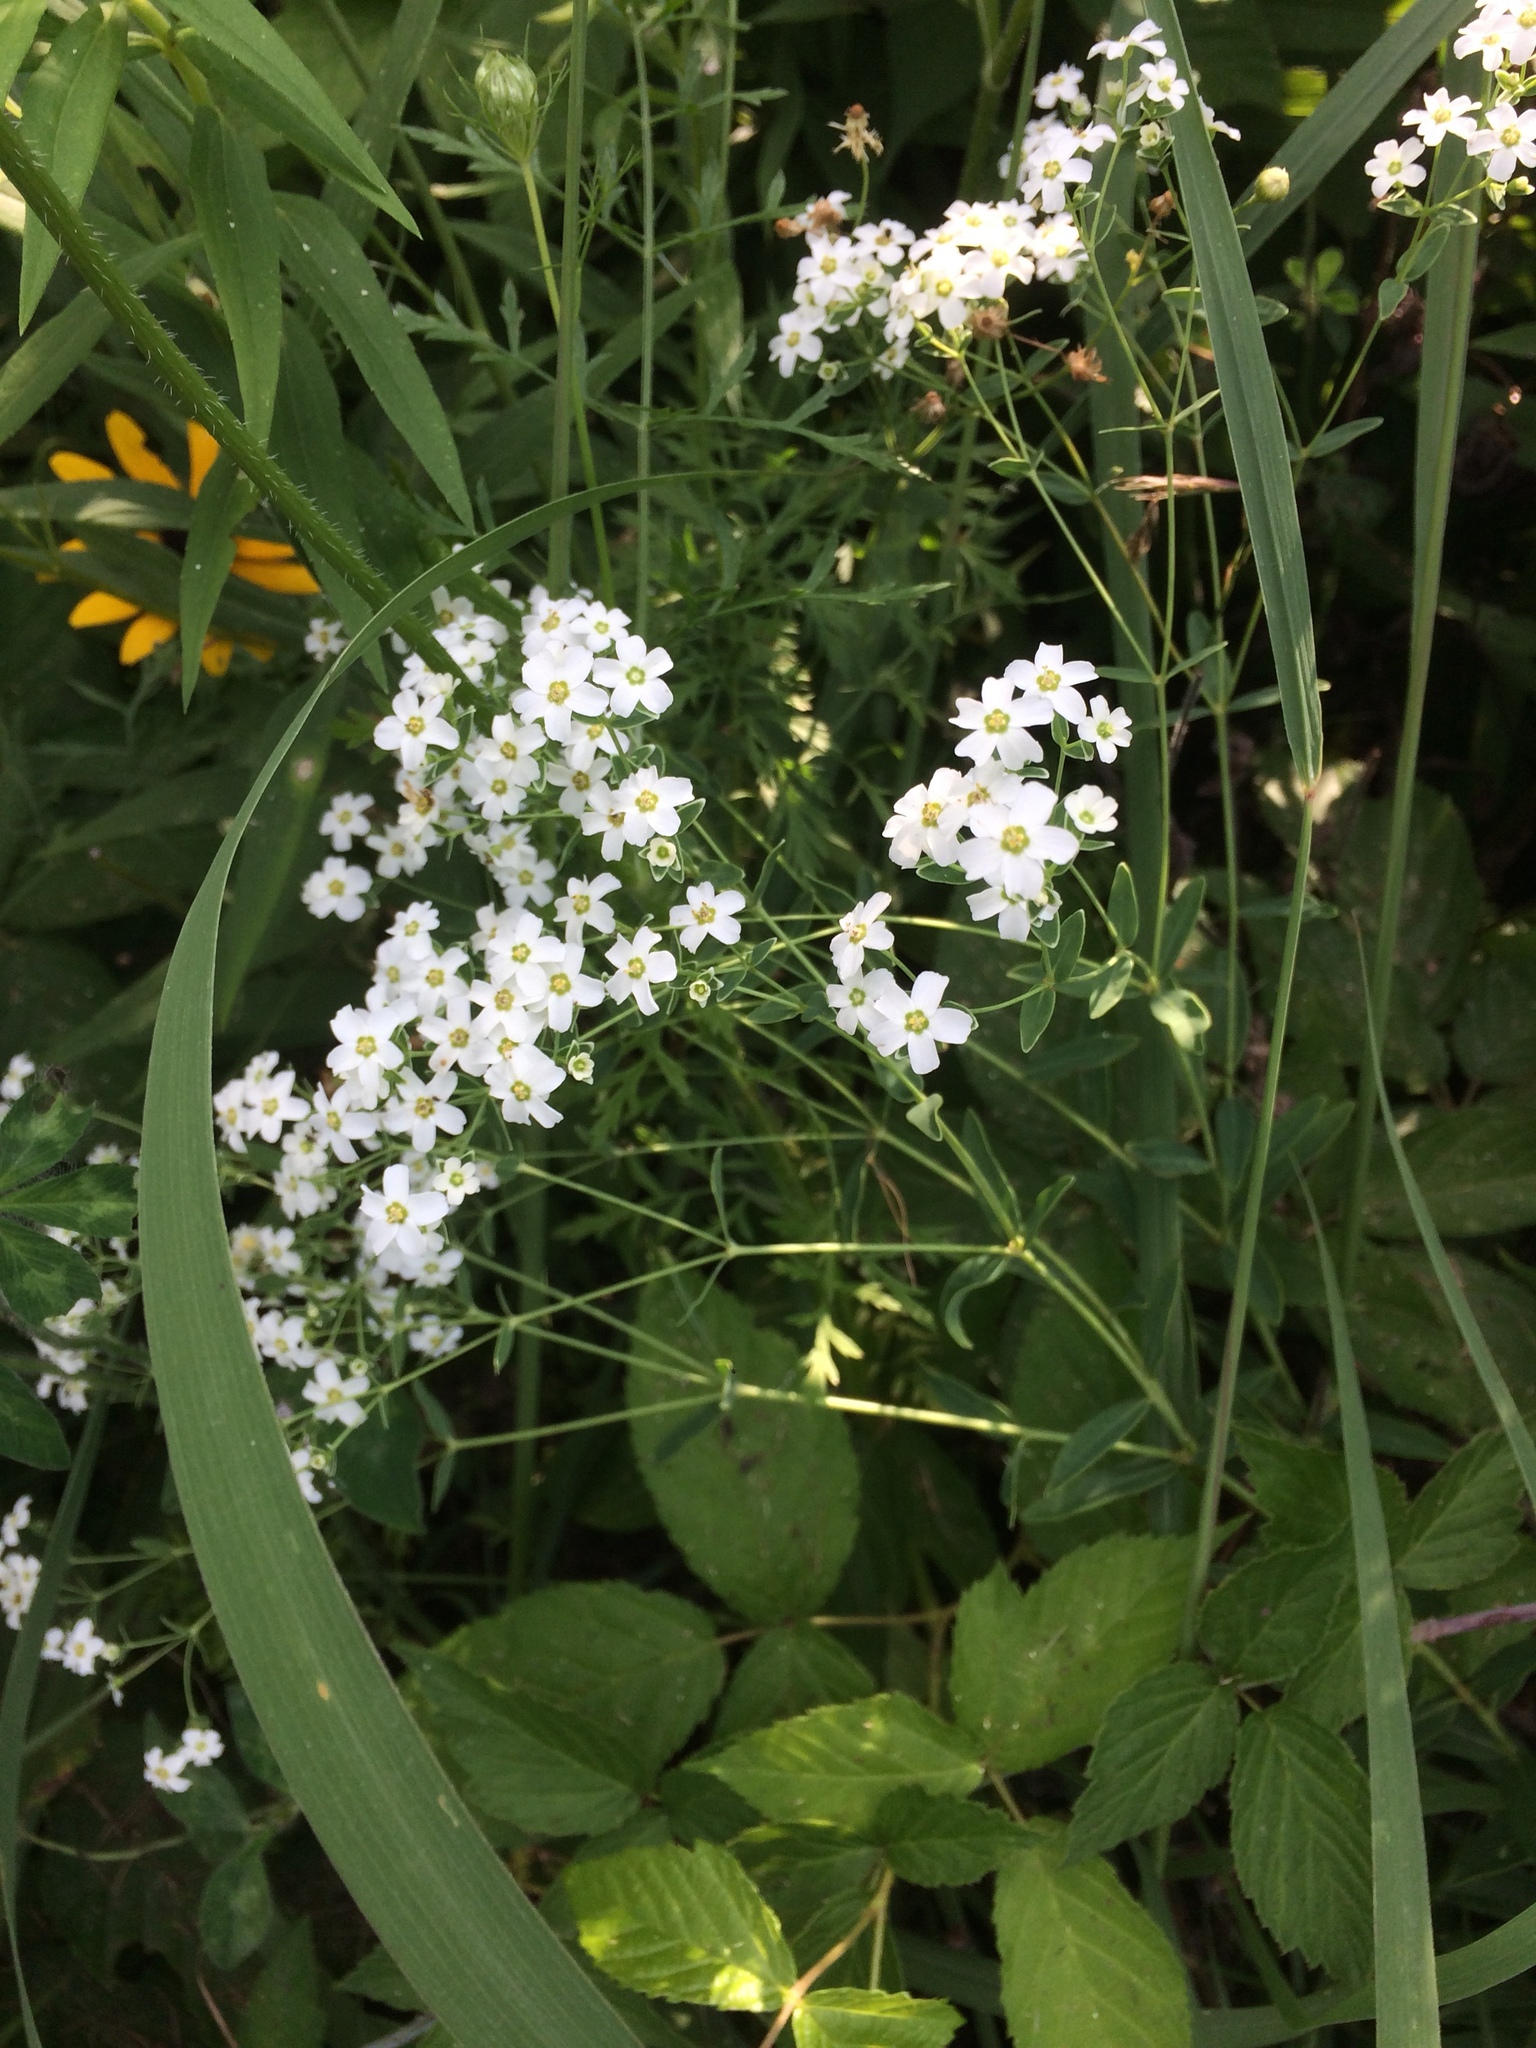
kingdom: Plantae
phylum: Tracheophyta
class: Magnoliopsida
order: Malpighiales
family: Euphorbiaceae
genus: Euphorbia
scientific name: Euphorbia corollata
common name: Flowering spurge
